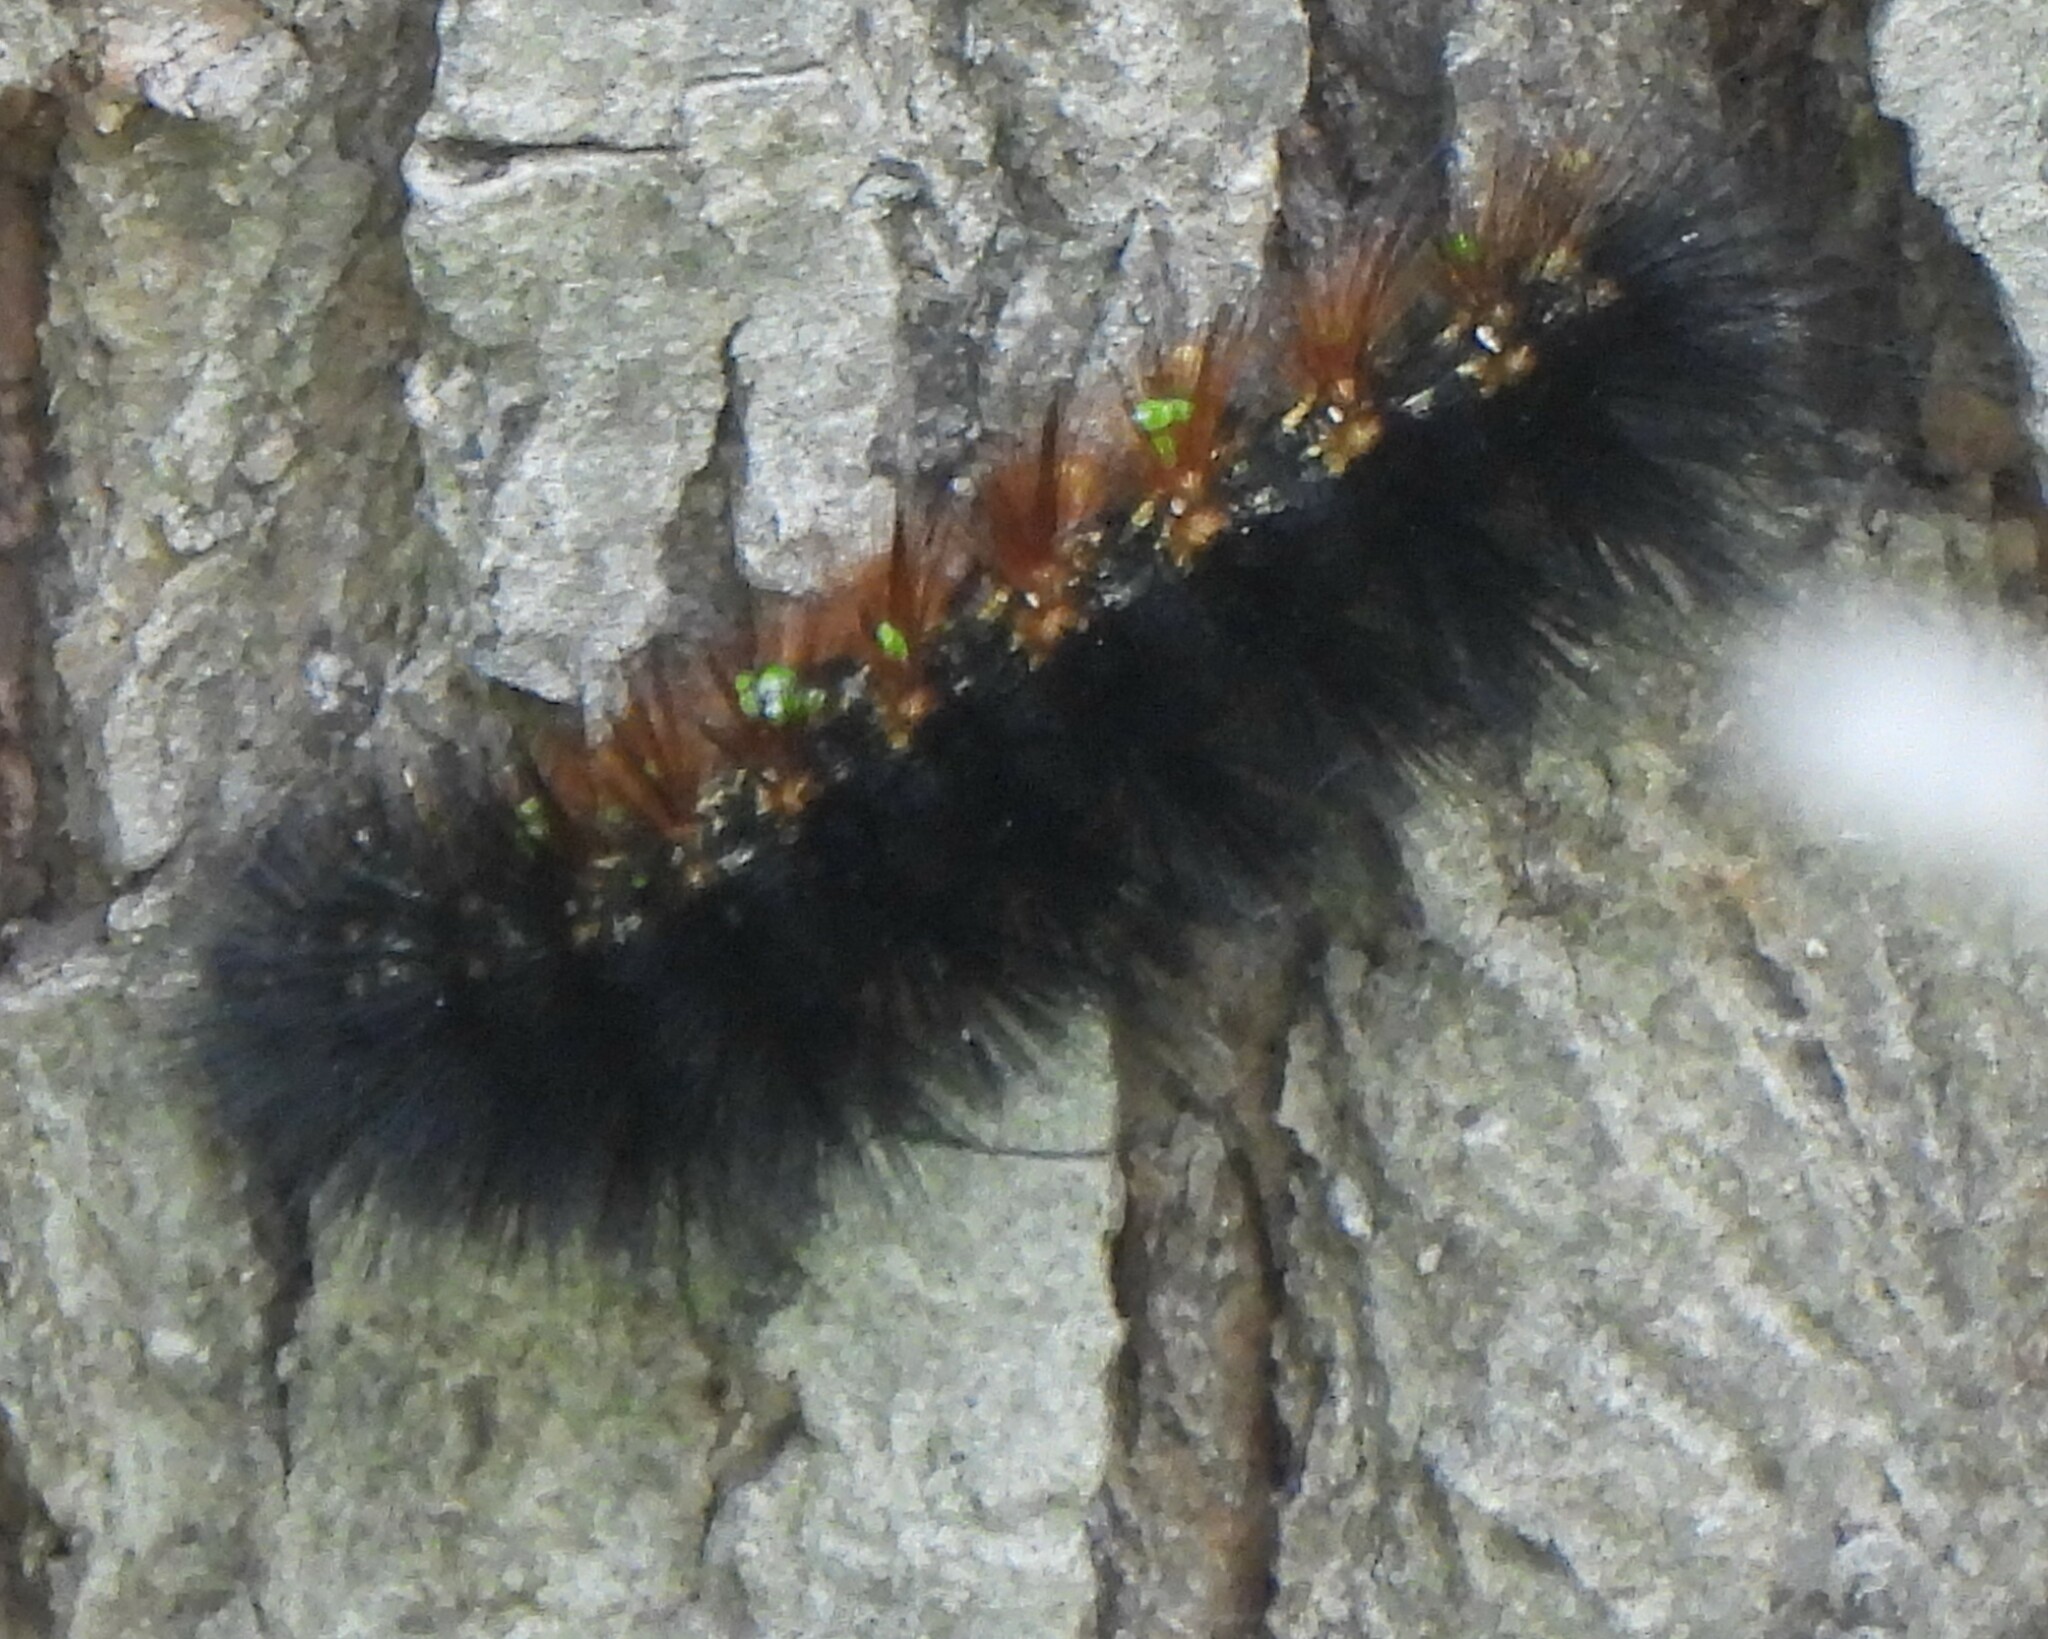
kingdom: Animalia
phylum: Arthropoda
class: Insecta
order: Lepidoptera
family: Erebidae
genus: Estigmene
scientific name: Estigmene acrea
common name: Salt marsh moth
